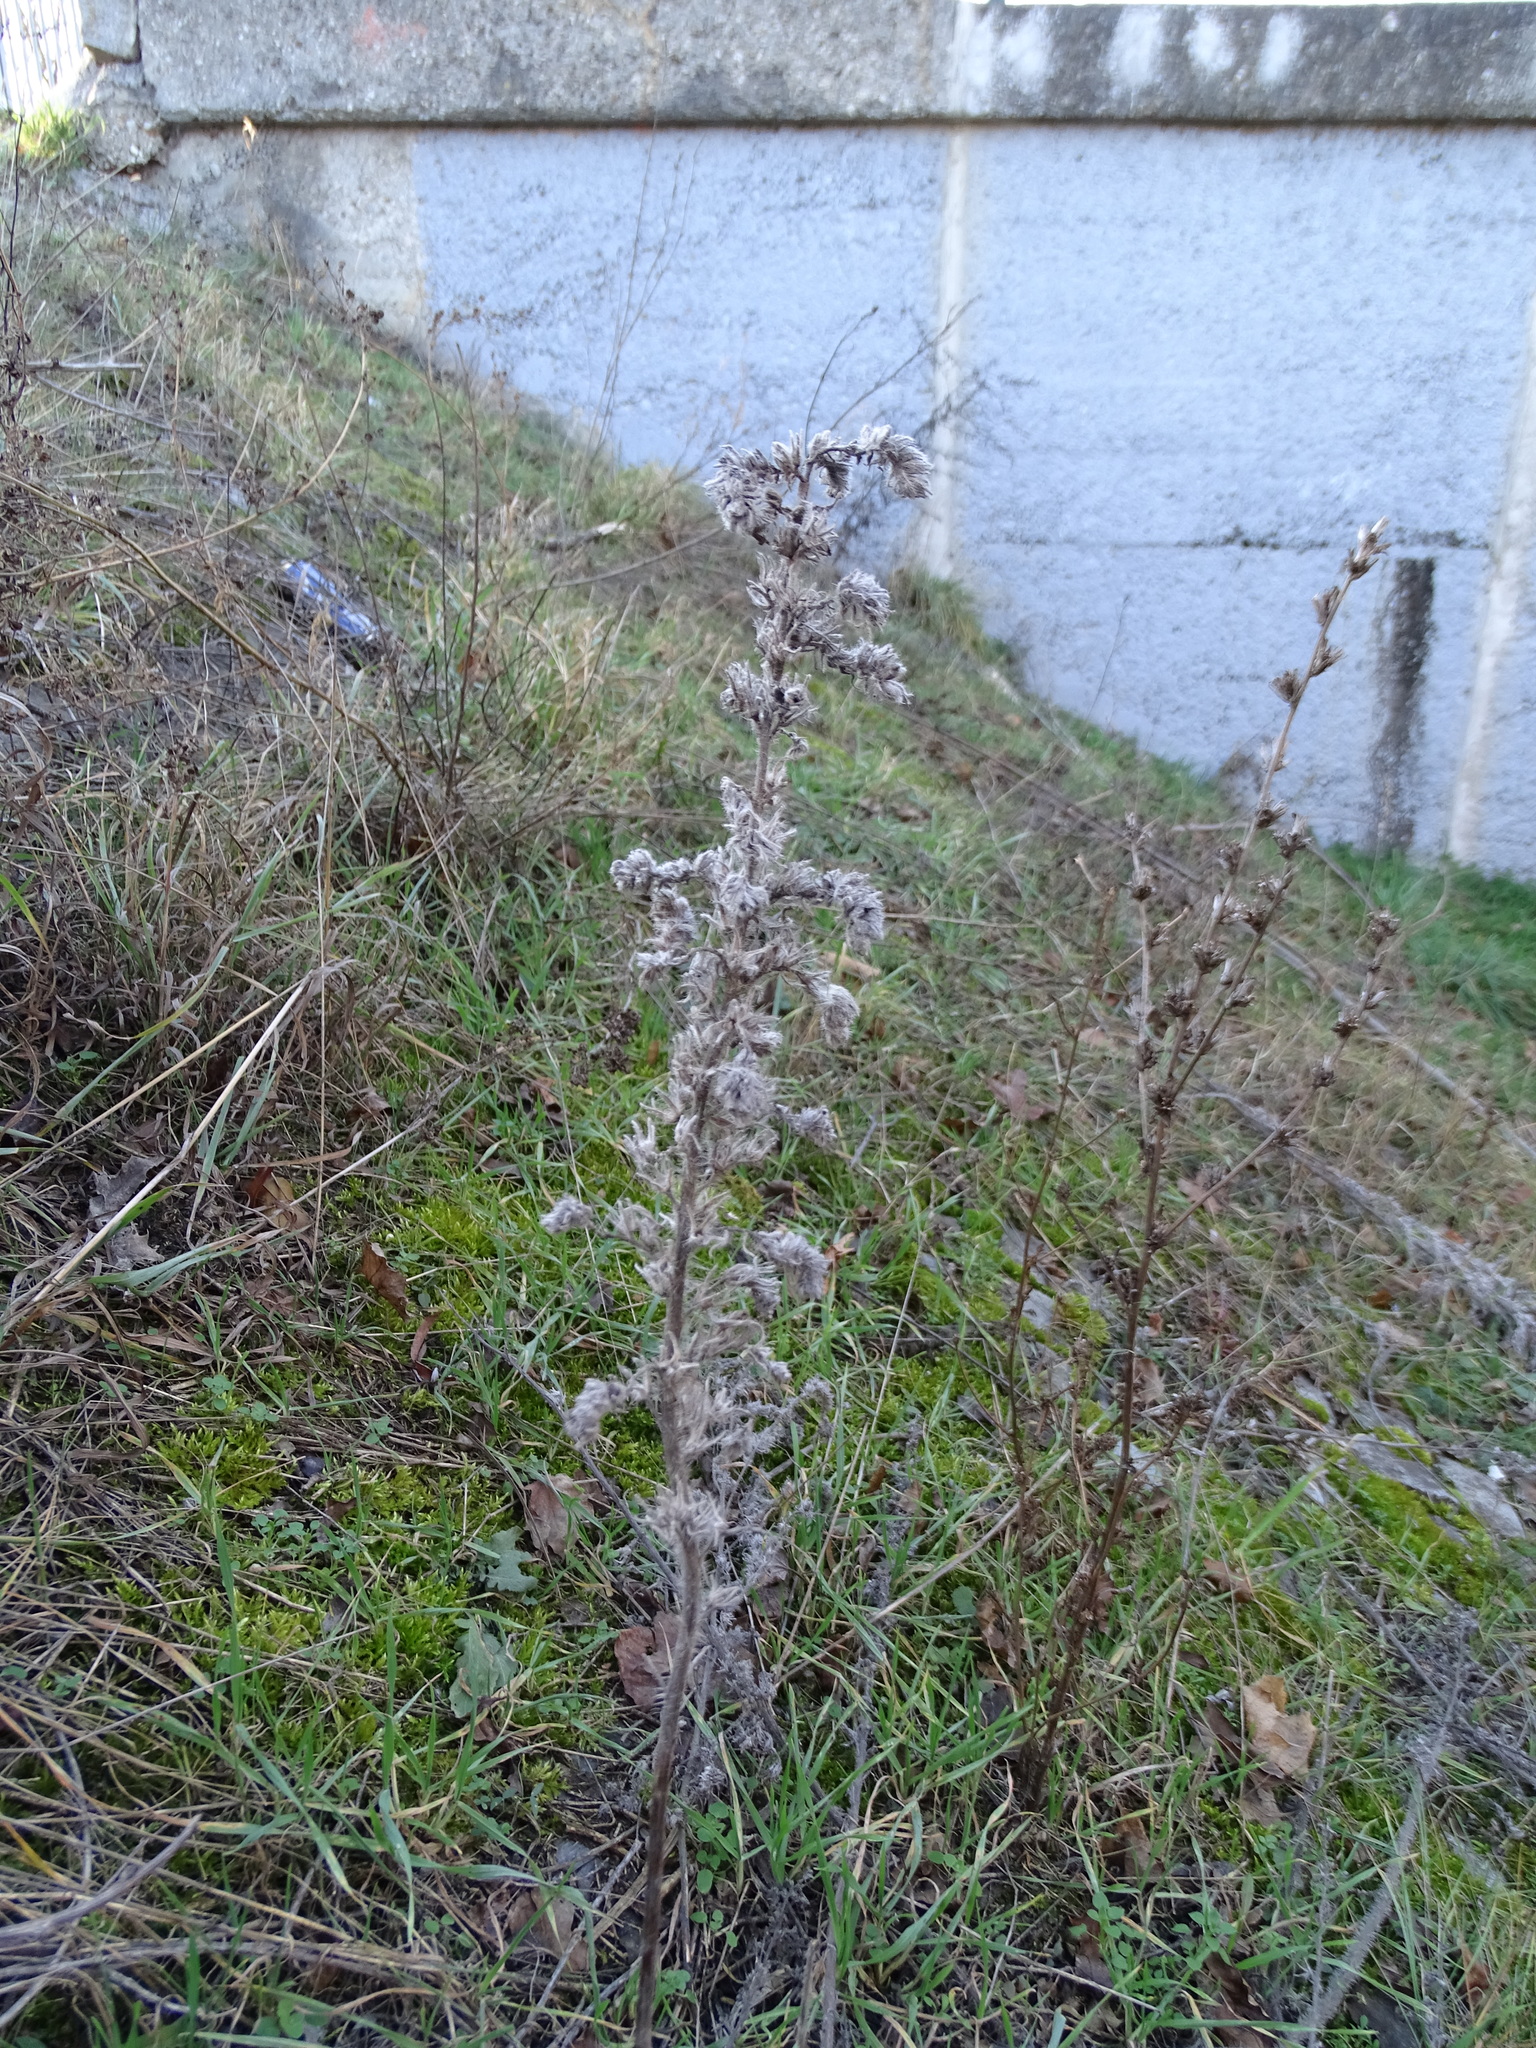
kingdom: Plantae
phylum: Tracheophyta
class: Magnoliopsida
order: Boraginales
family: Boraginaceae
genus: Echium
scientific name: Echium vulgare
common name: Common viper's bugloss
